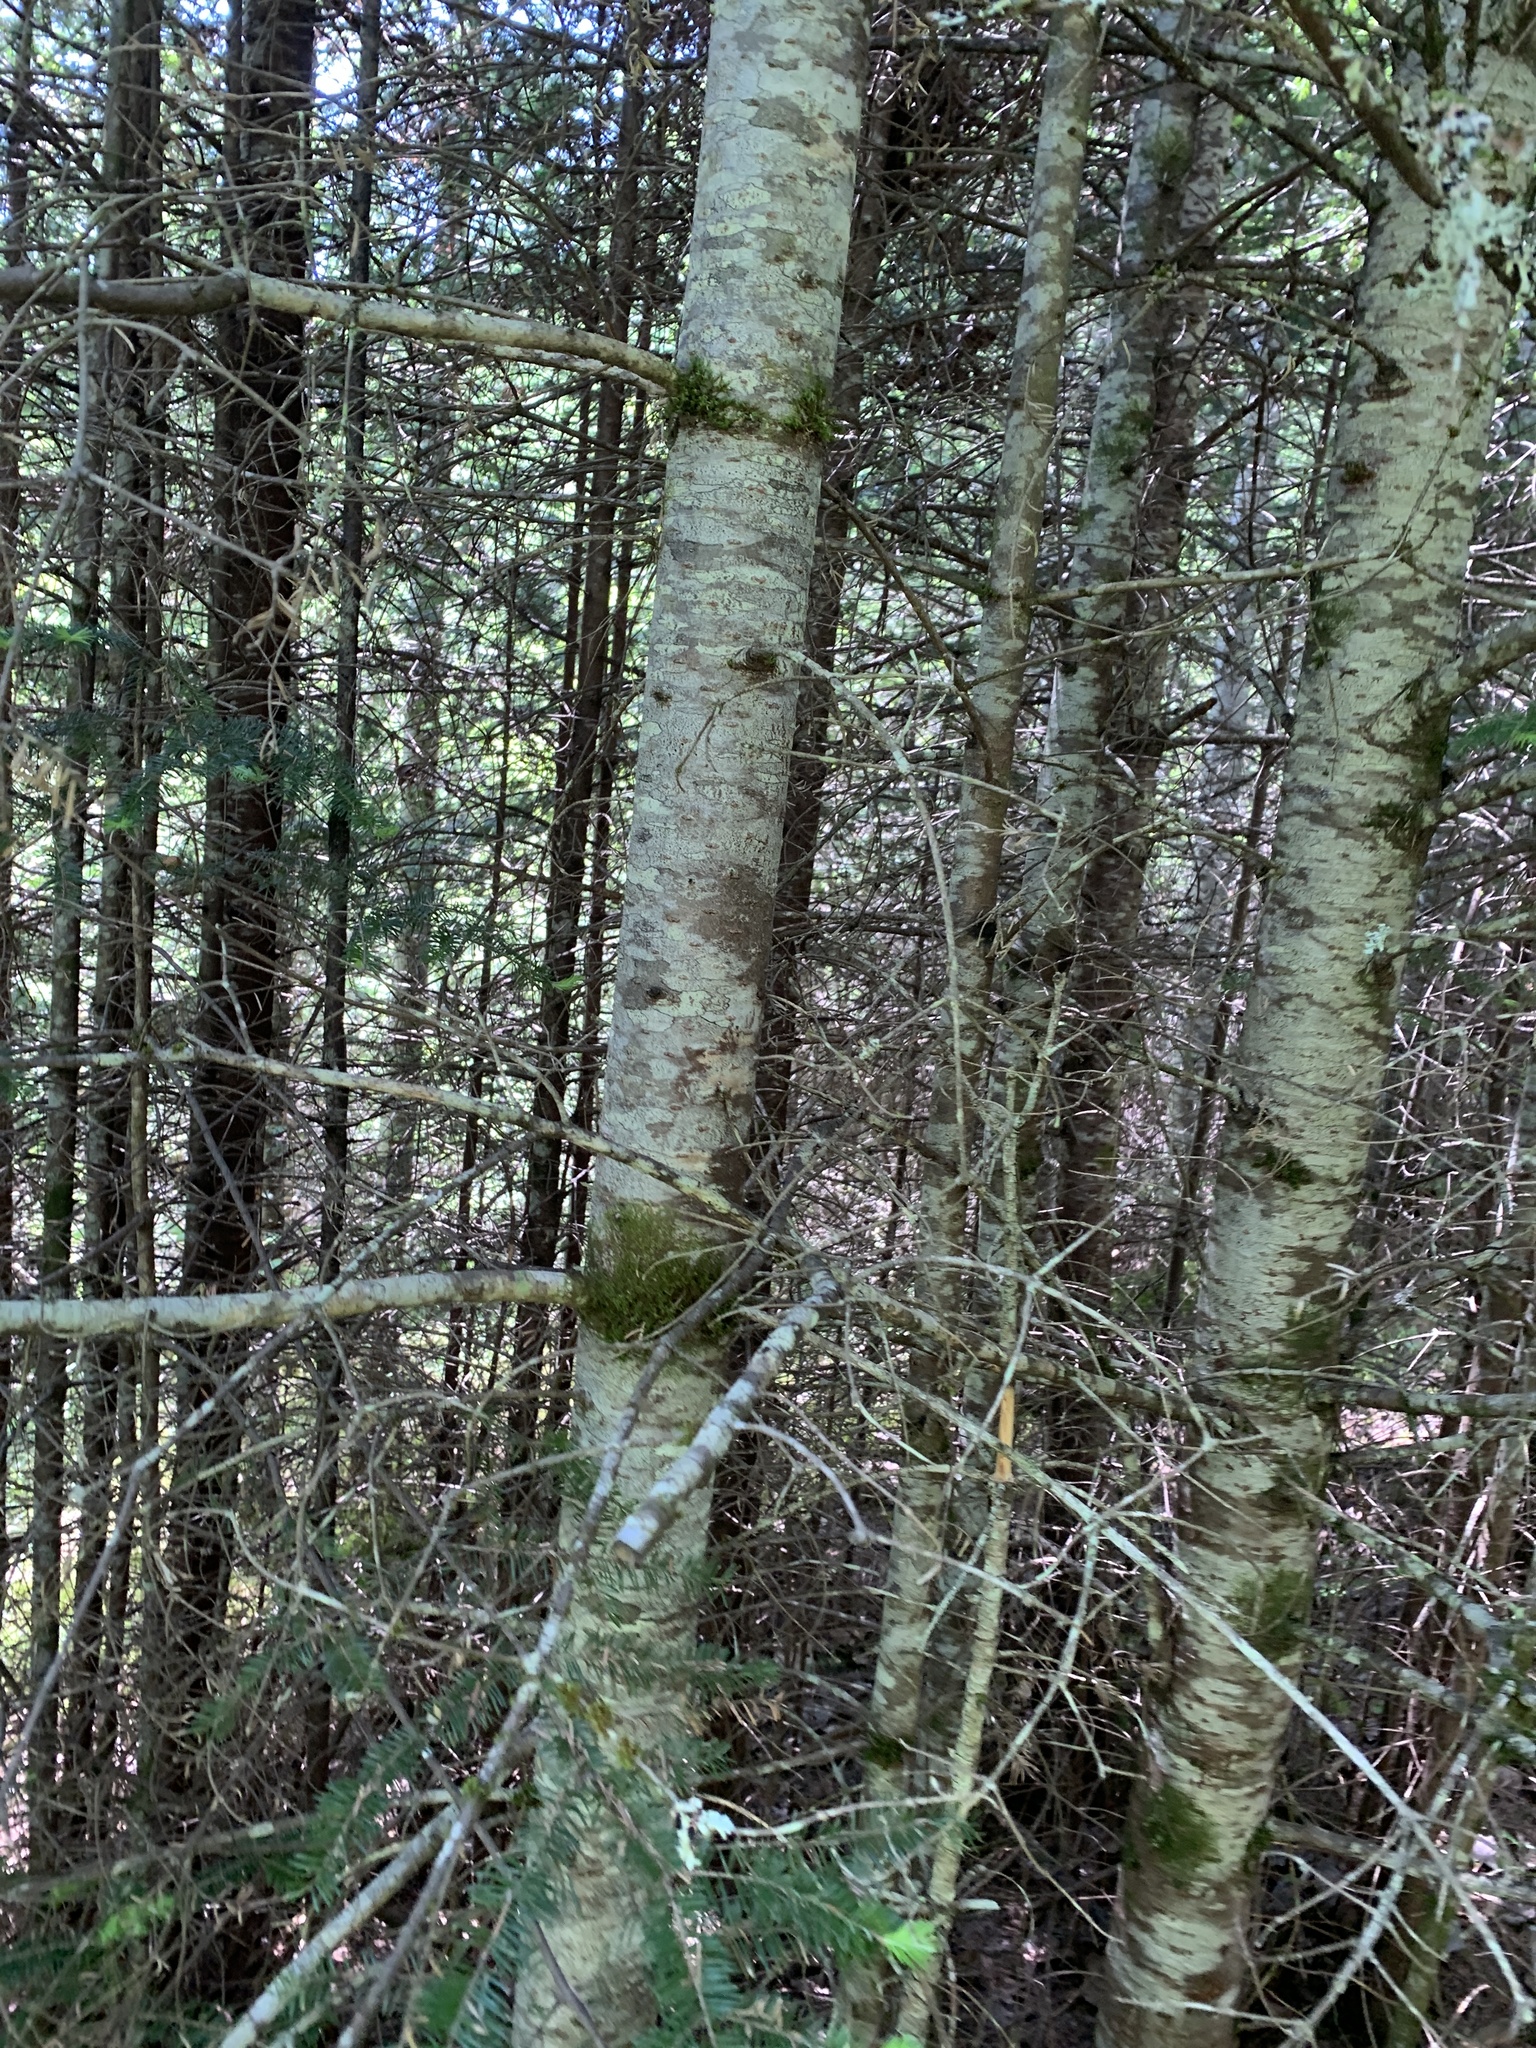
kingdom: Plantae
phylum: Tracheophyta
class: Pinopsida
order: Pinales
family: Pinaceae
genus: Abies
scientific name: Abies balsamea
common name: Balsam fir
